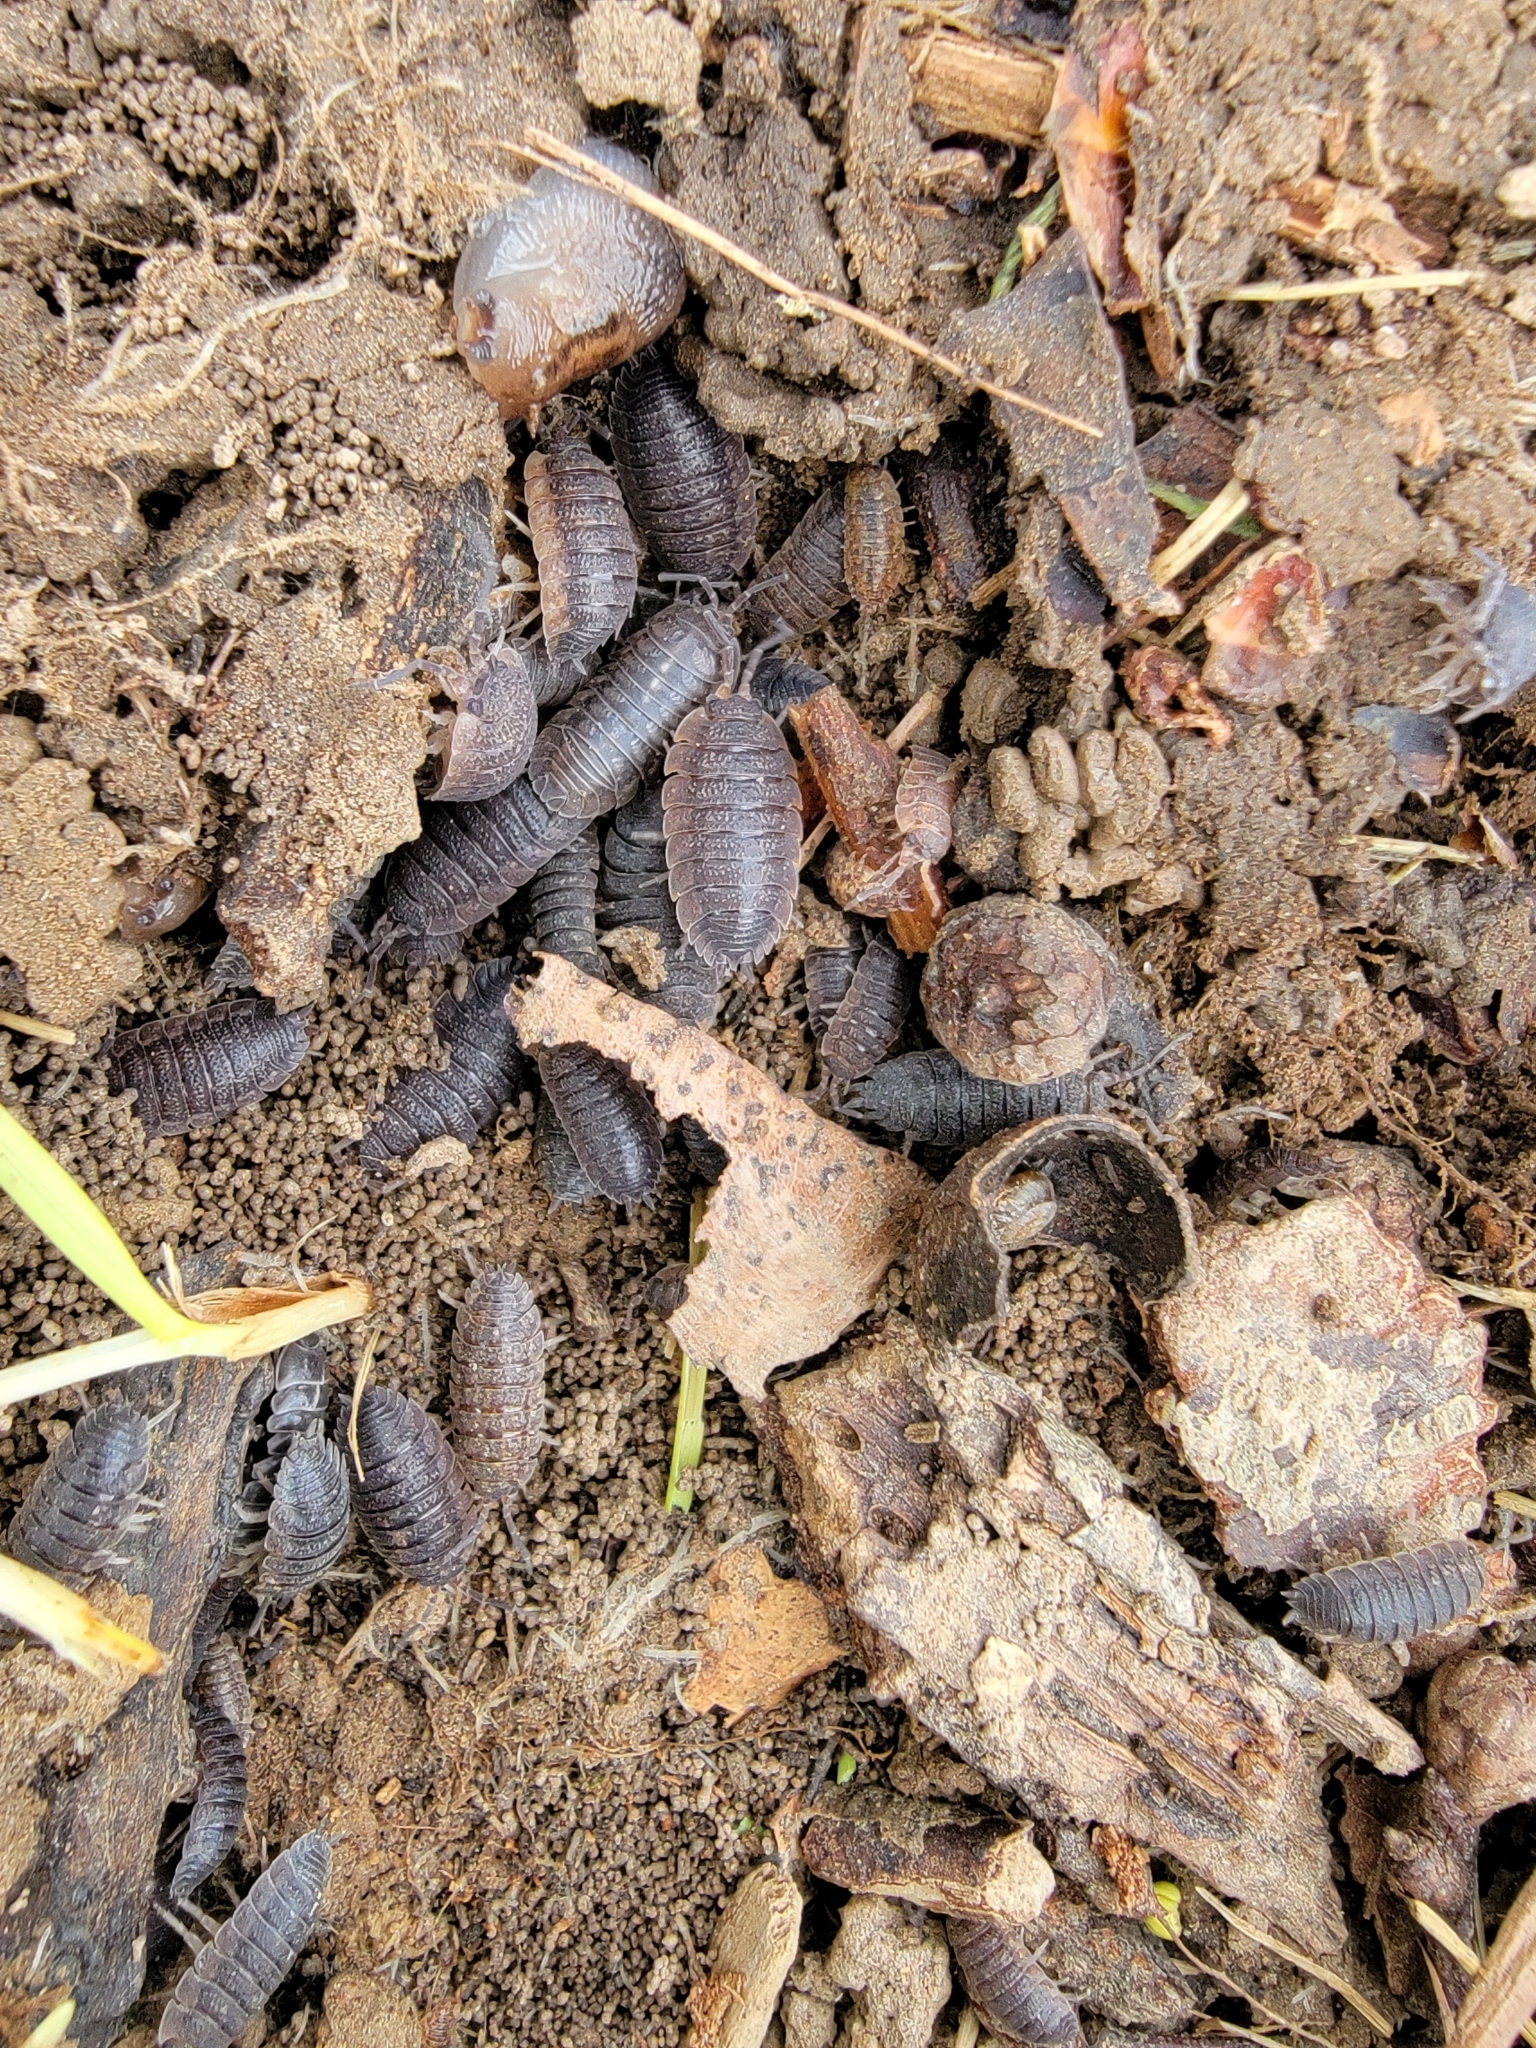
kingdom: Animalia
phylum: Arthropoda
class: Malacostraca
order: Isopoda
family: Porcellionidae
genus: Porcellio
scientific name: Porcellio scaber
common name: Common rough woodlouse
